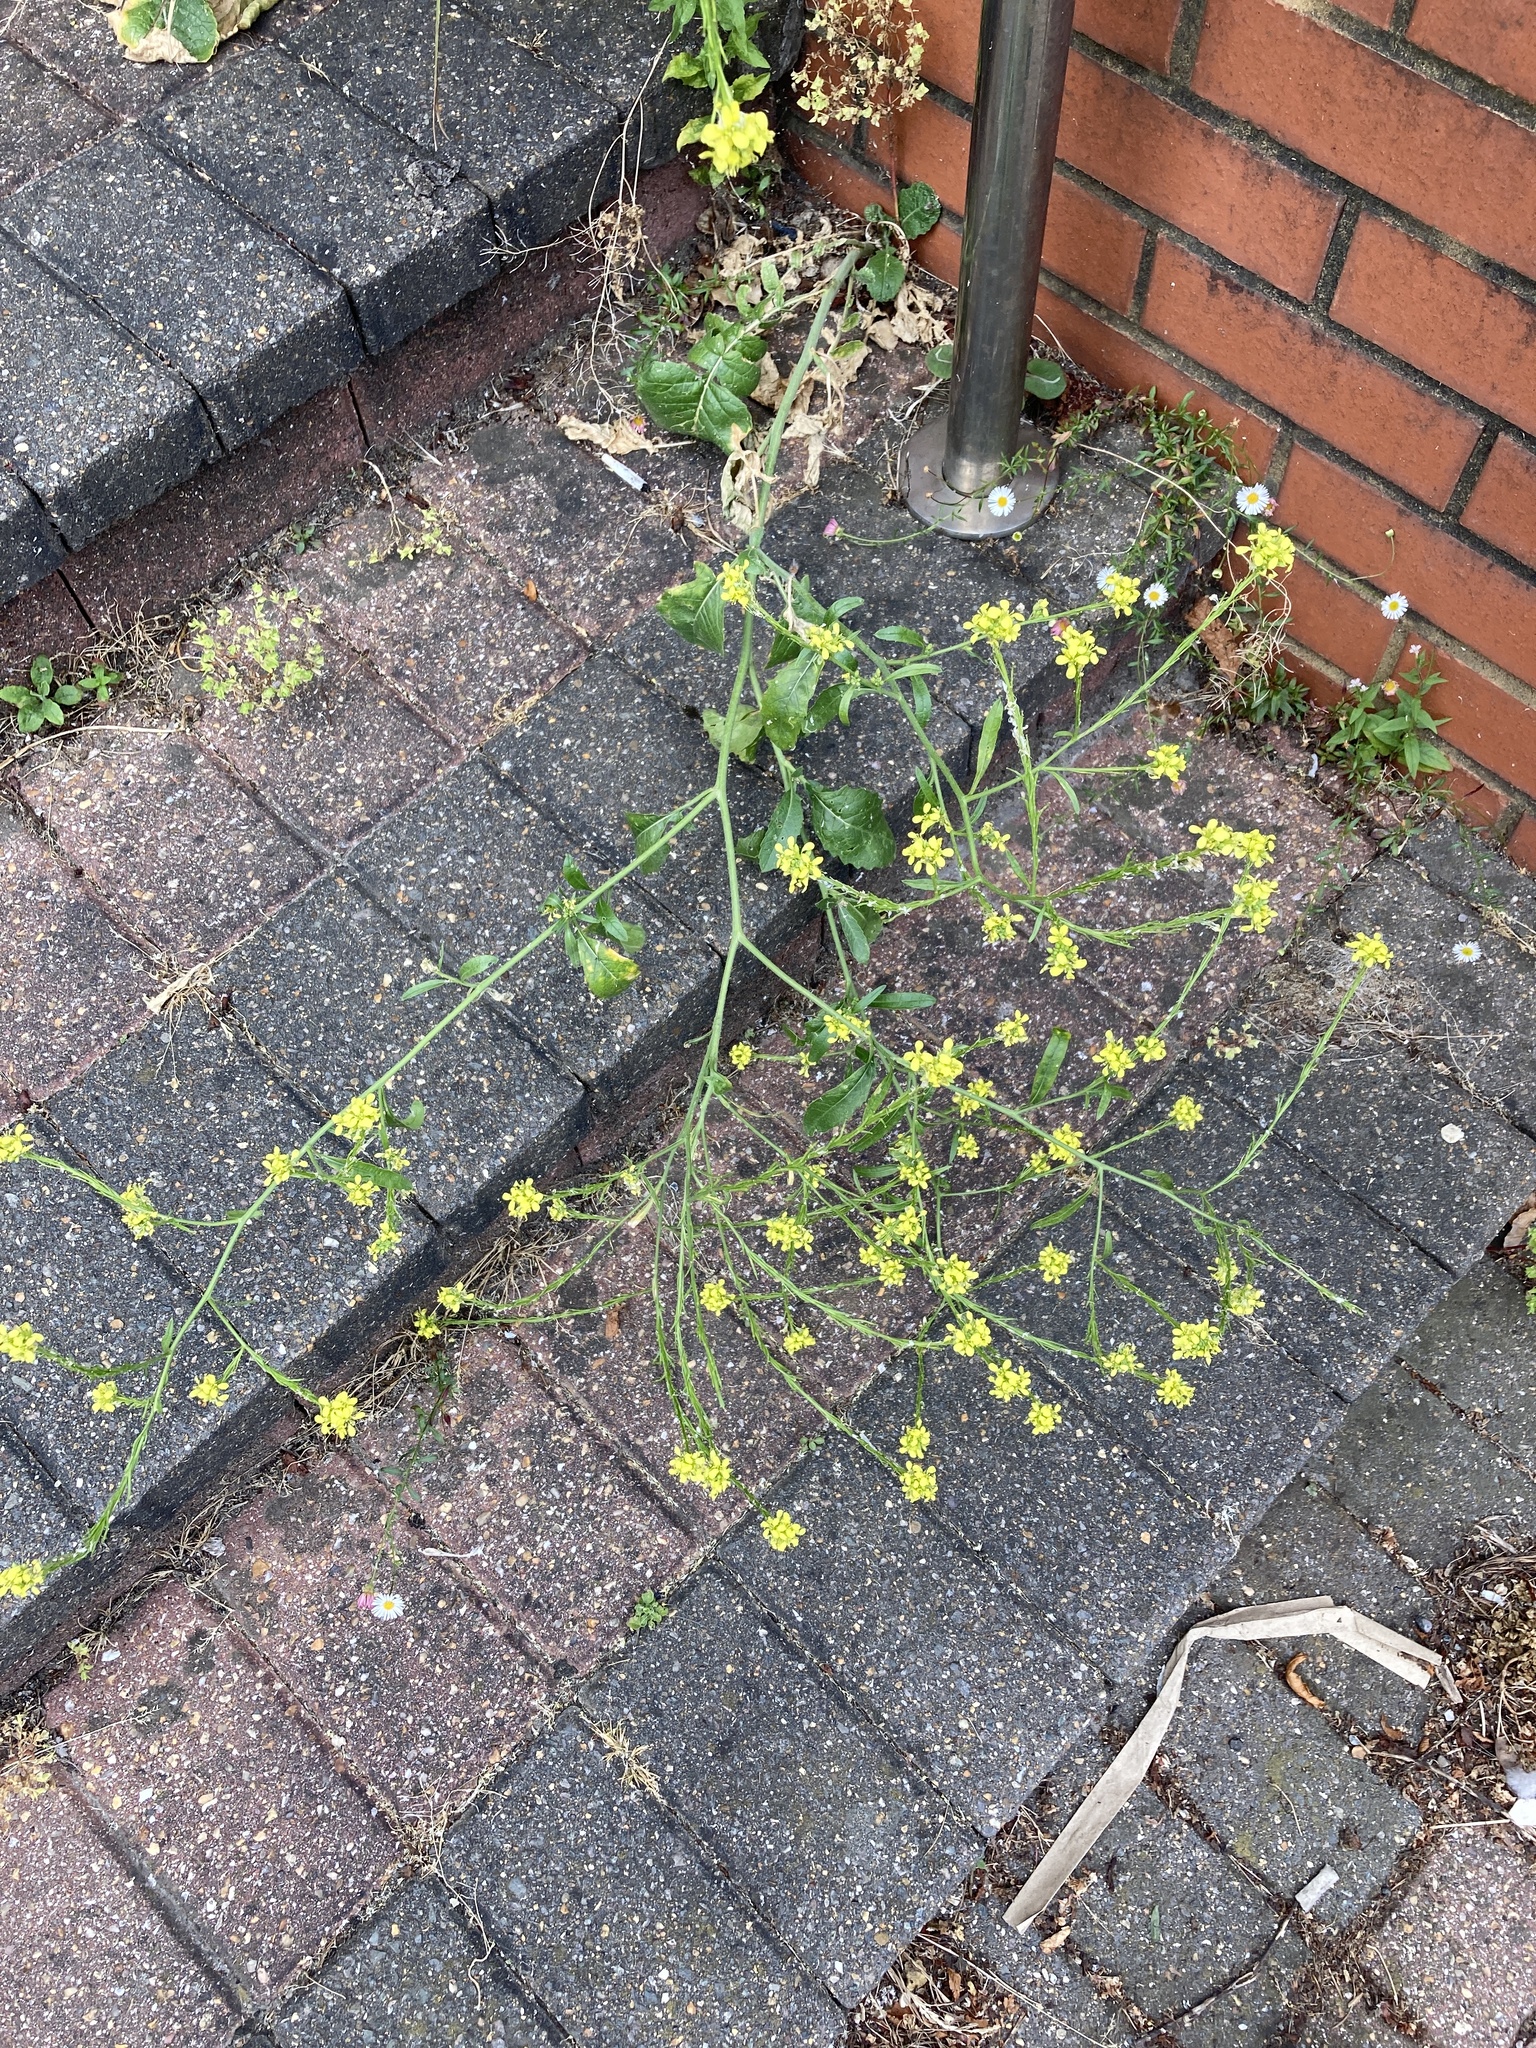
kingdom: Plantae
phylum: Tracheophyta
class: Magnoliopsida
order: Brassicales
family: Brassicaceae
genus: Hirschfeldia
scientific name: Hirschfeldia incana
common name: Hoary mustard
